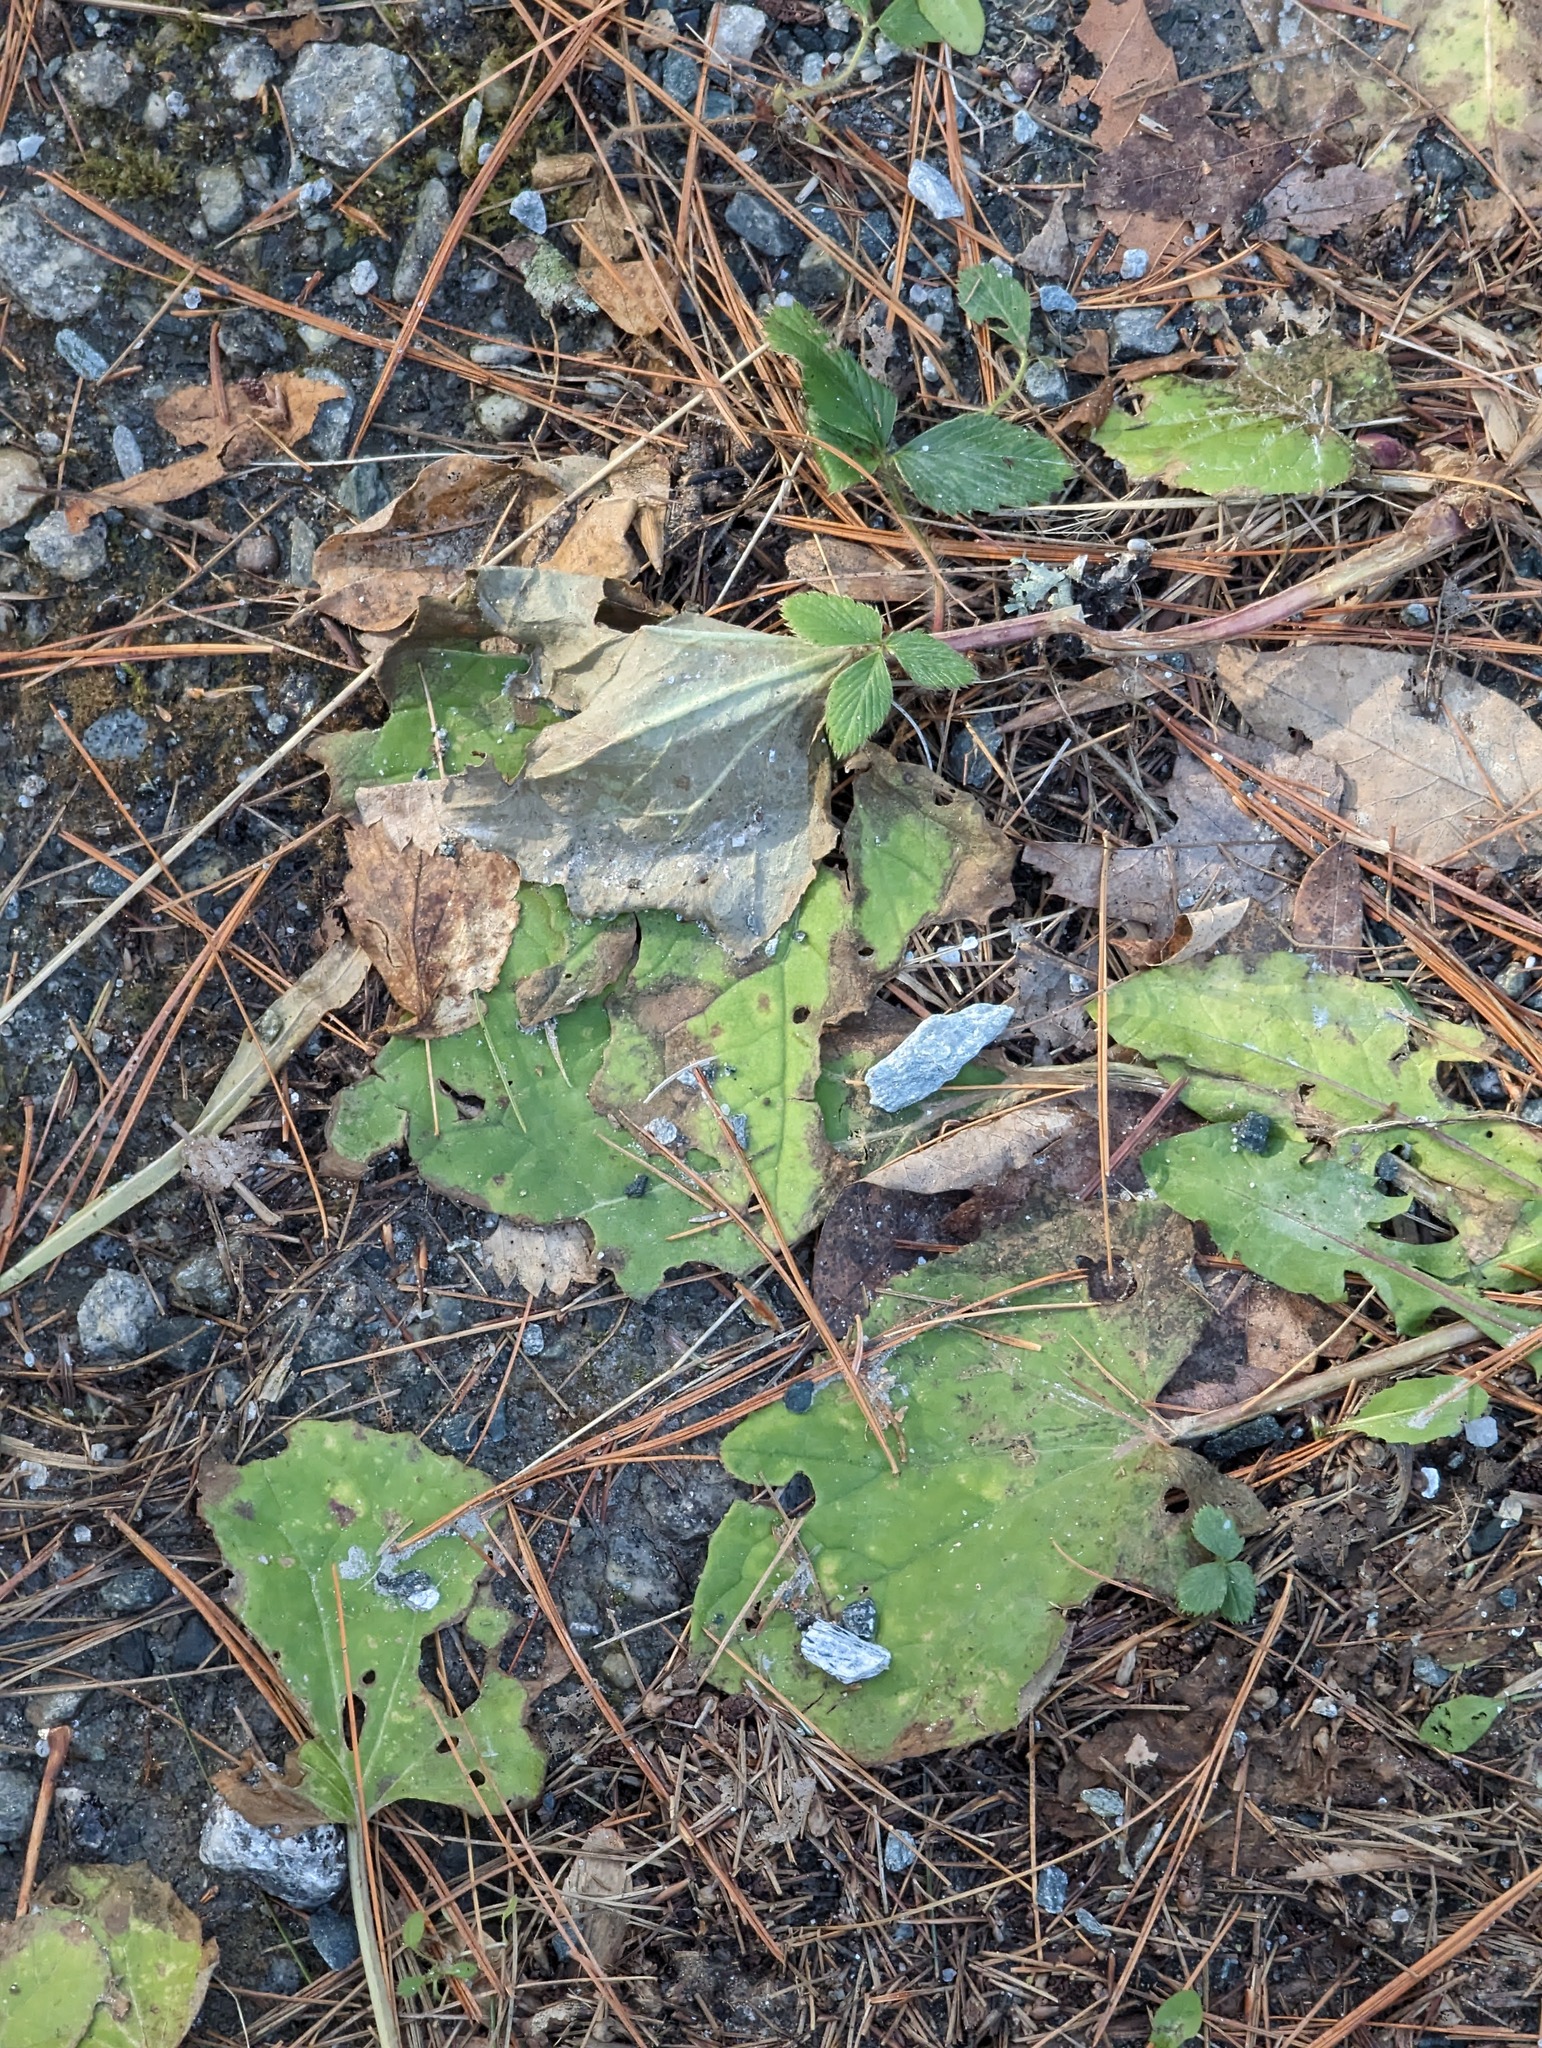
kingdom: Plantae
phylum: Tracheophyta
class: Magnoliopsida
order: Asterales
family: Asteraceae
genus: Tussilago
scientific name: Tussilago farfara
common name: Coltsfoot
